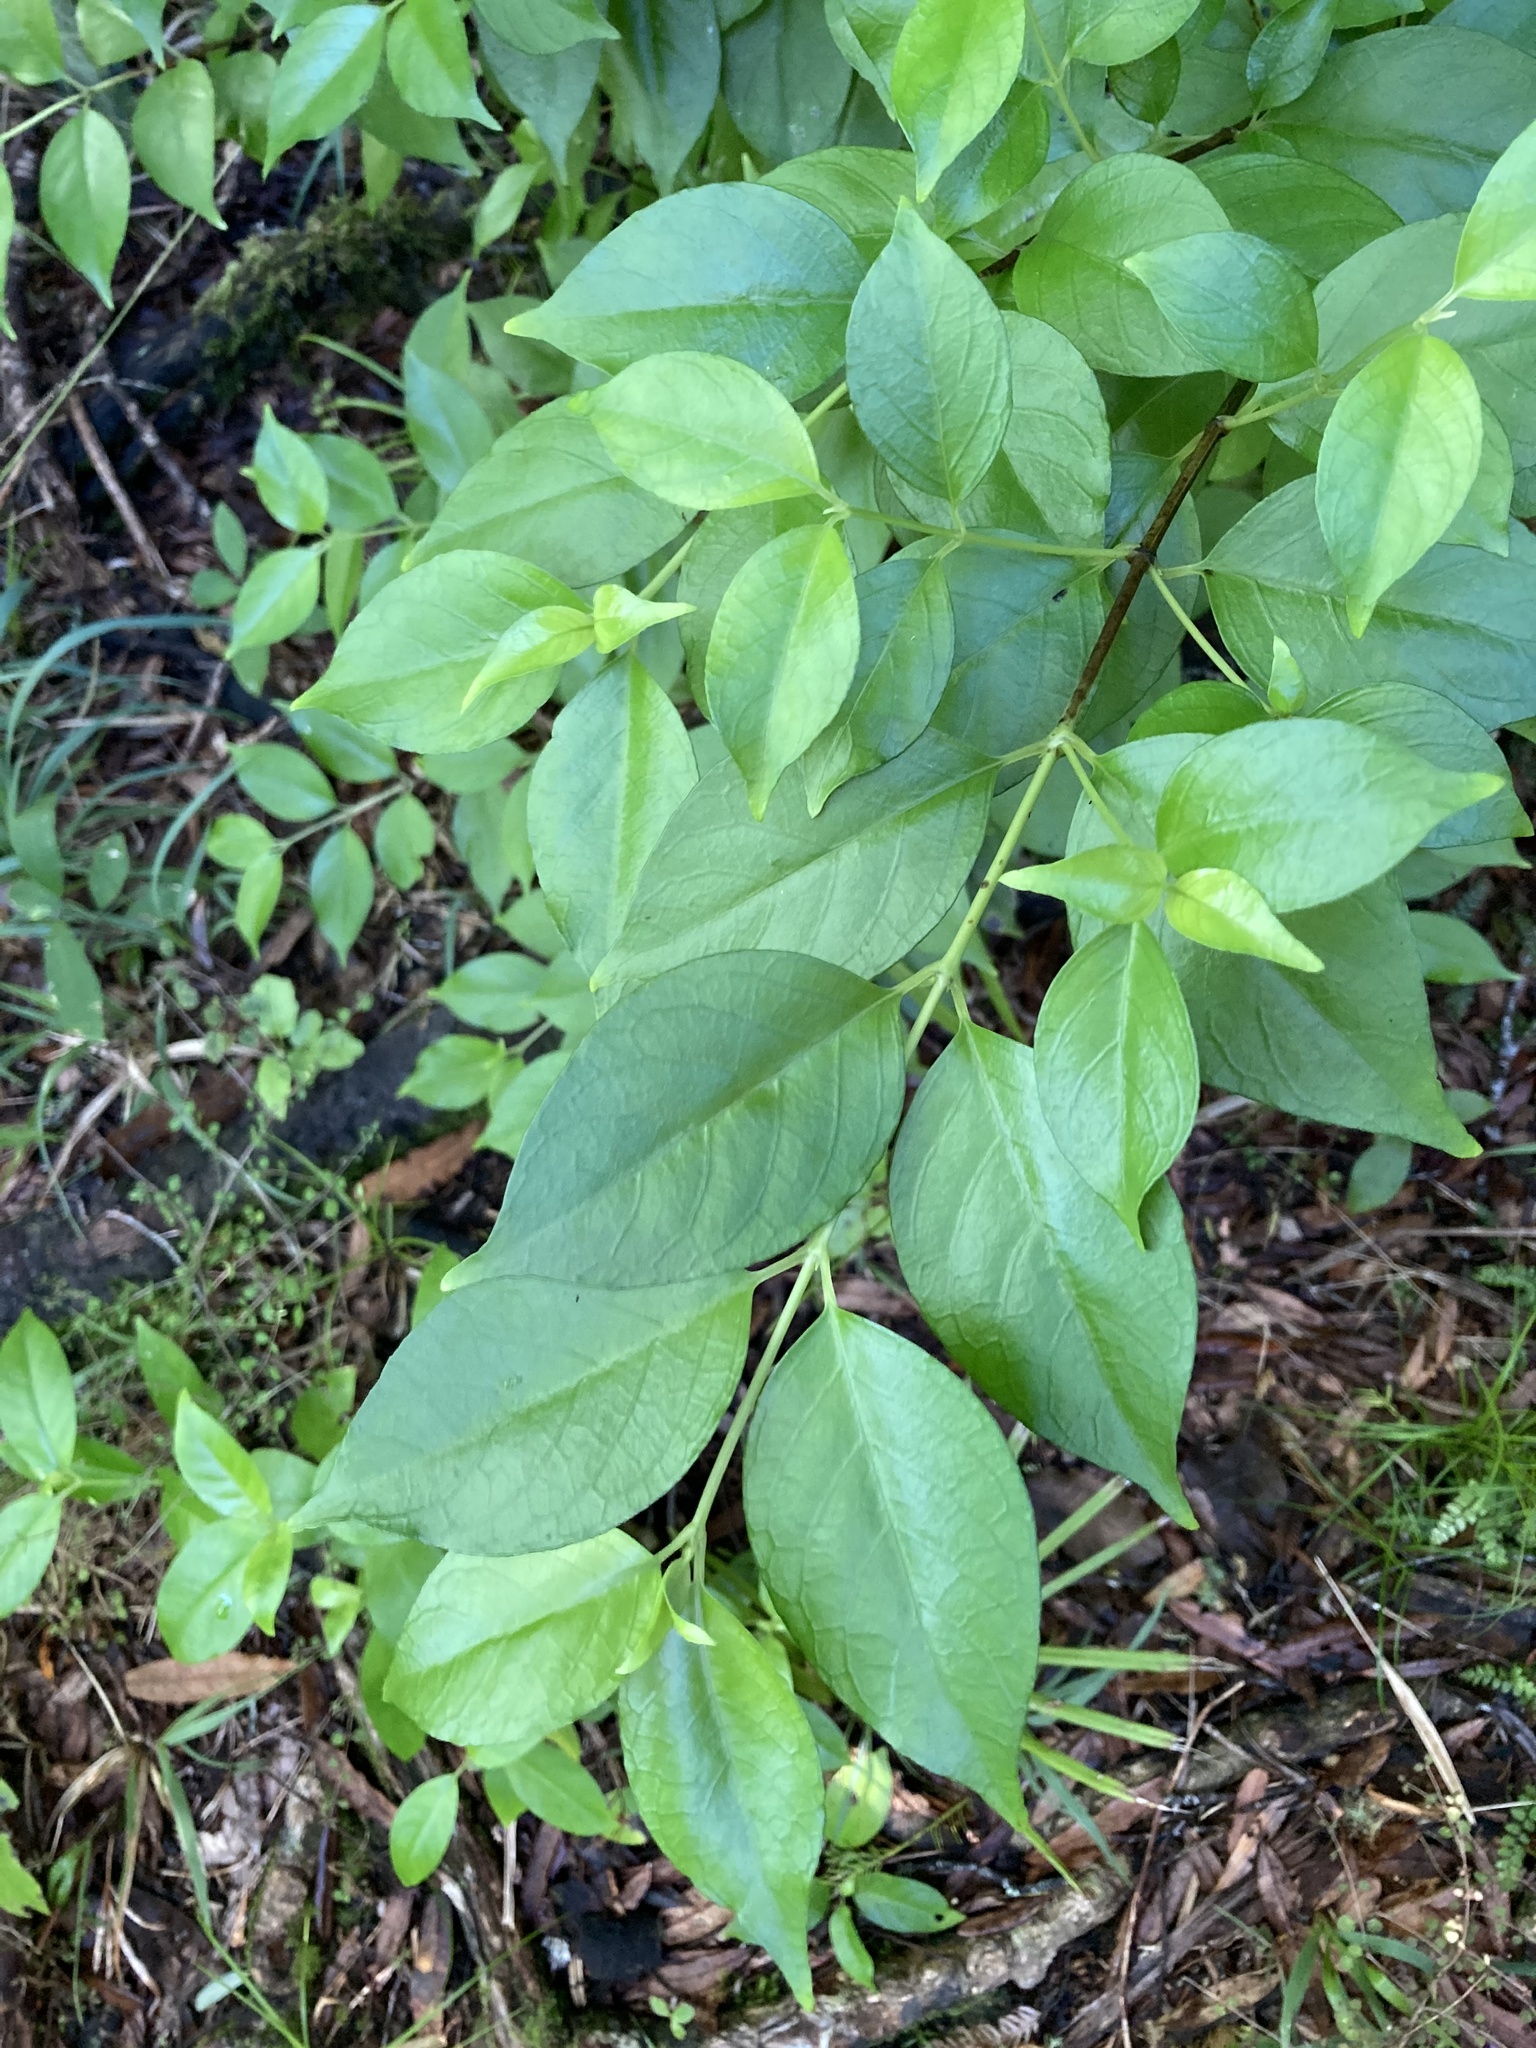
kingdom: Plantae
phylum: Tracheophyta
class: Magnoliopsida
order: Gentianales
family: Loganiaceae
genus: Geniostoma
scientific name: Geniostoma ligustrifolium
